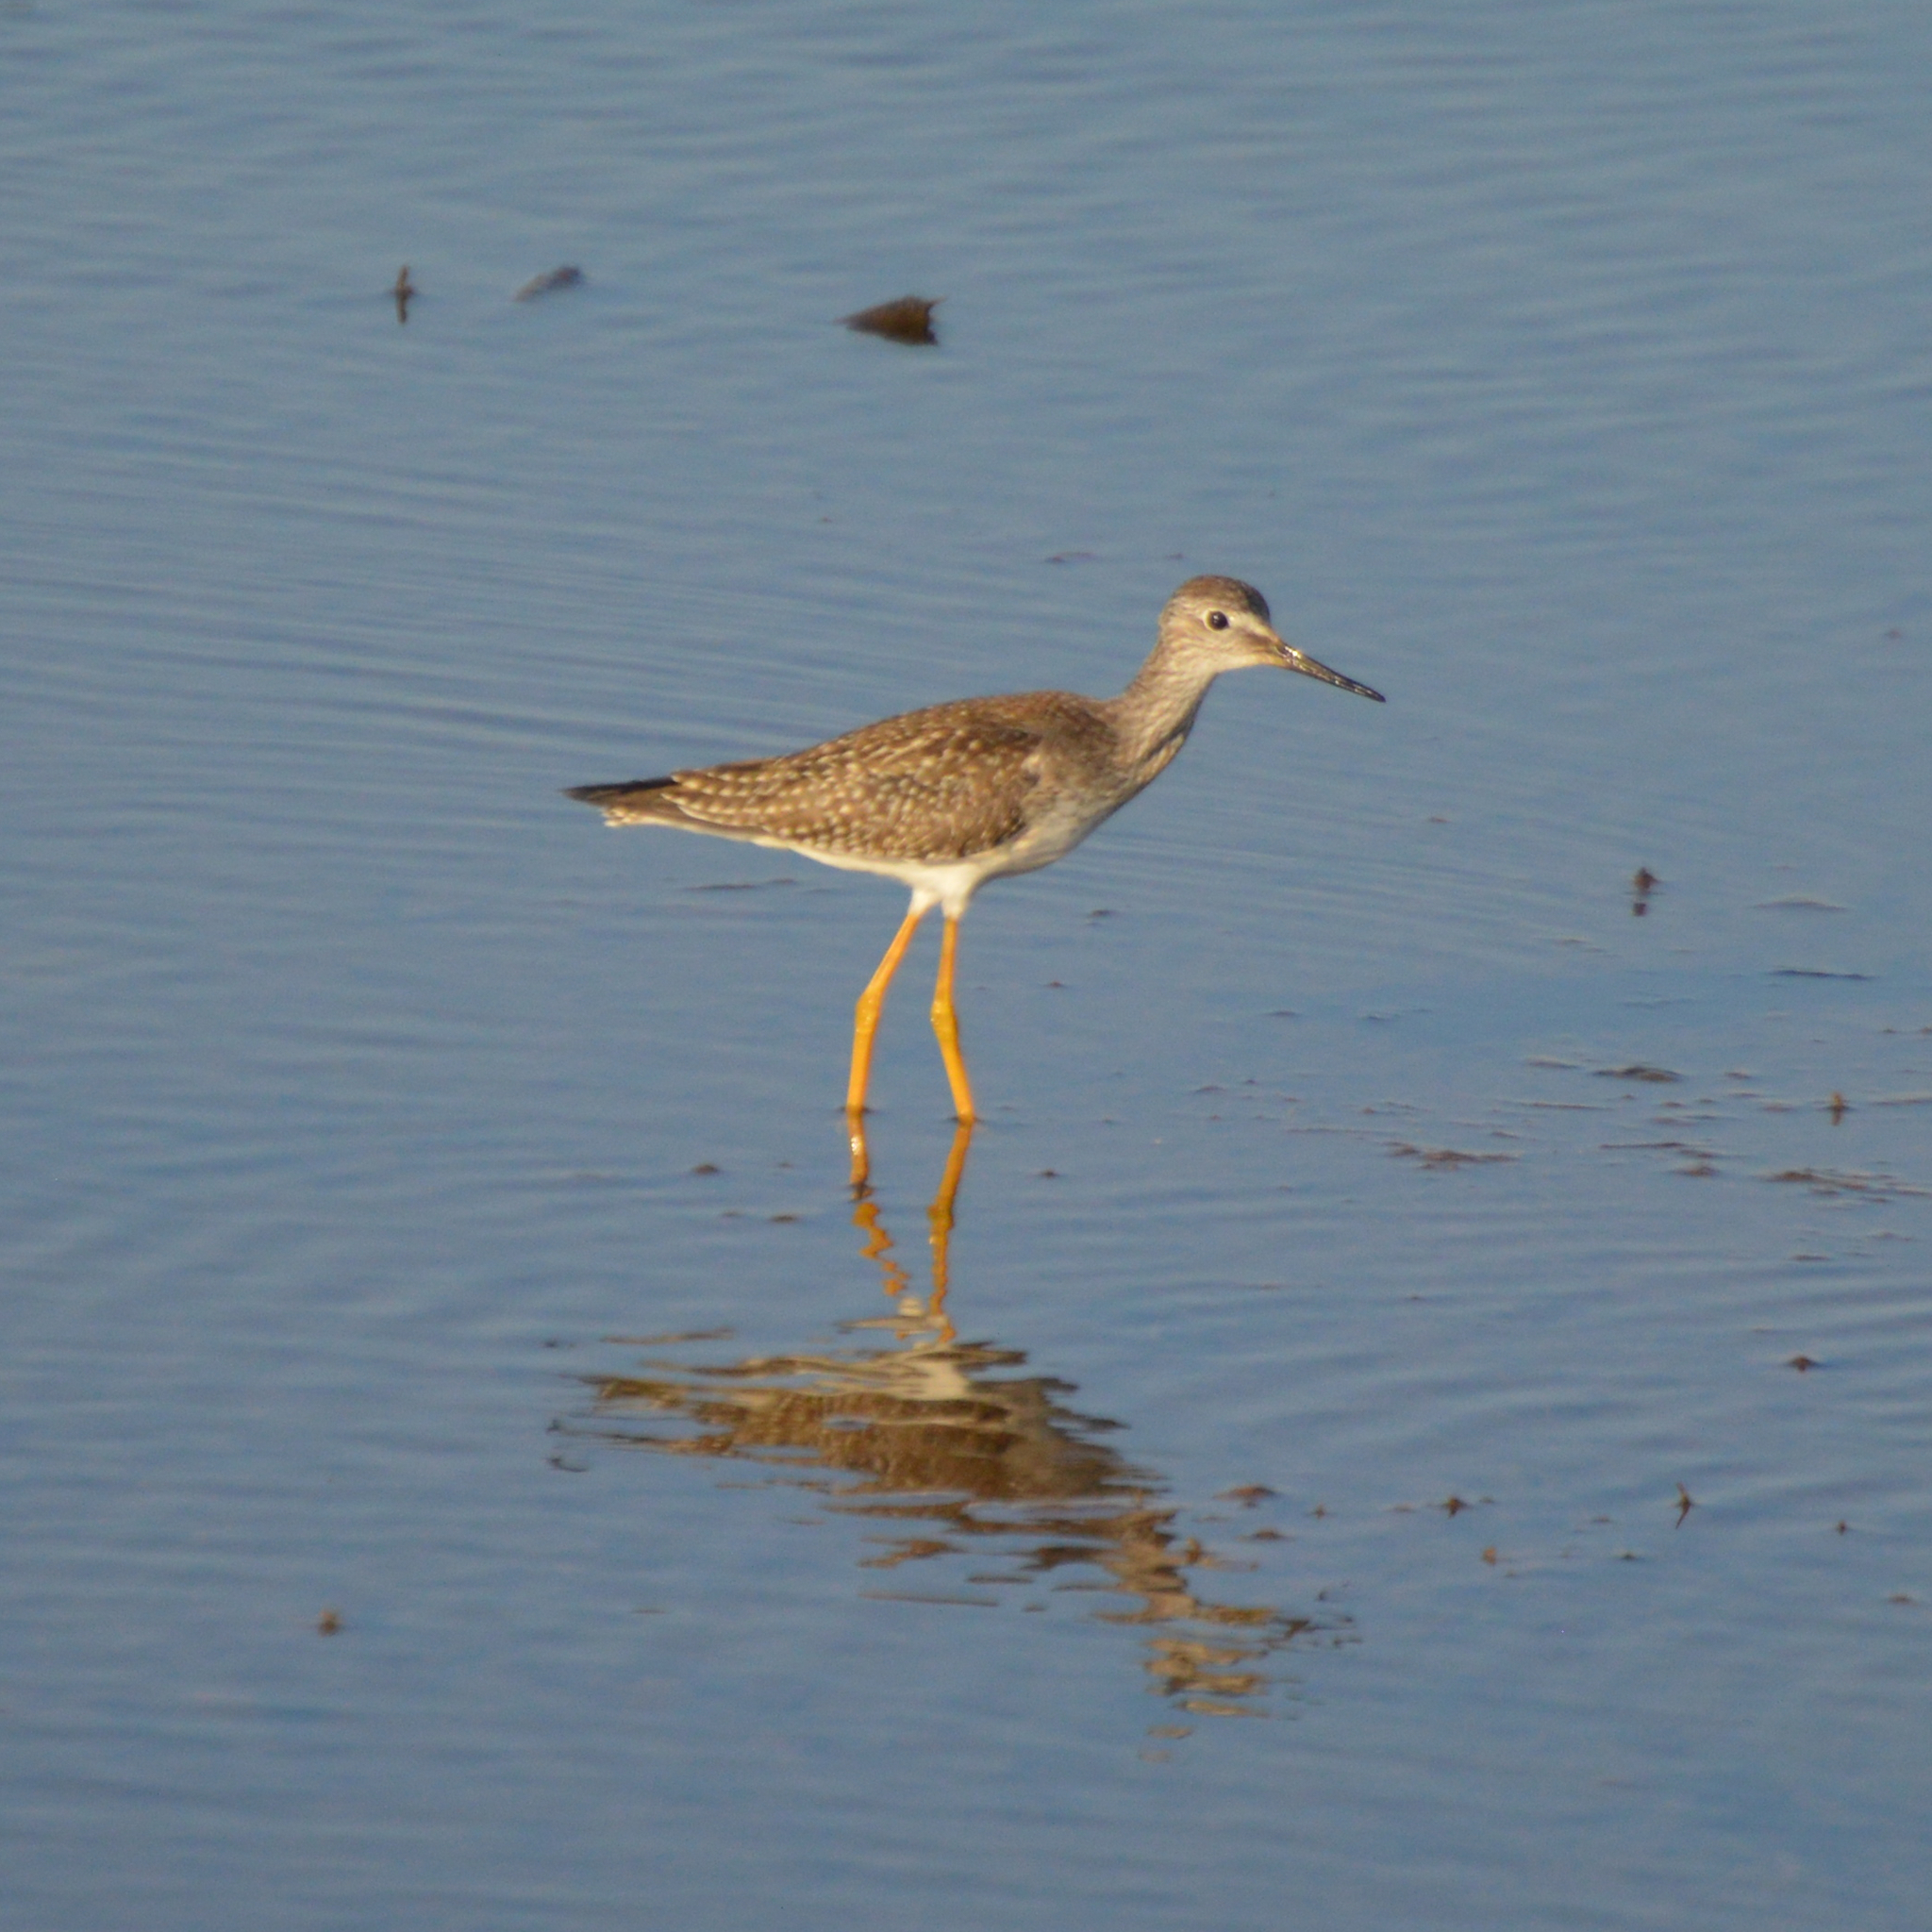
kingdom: Animalia
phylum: Chordata
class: Aves
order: Charadriiformes
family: Scolopacidae
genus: Tringa
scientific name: Tringa flavipes
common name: Lesser yellowlegs
